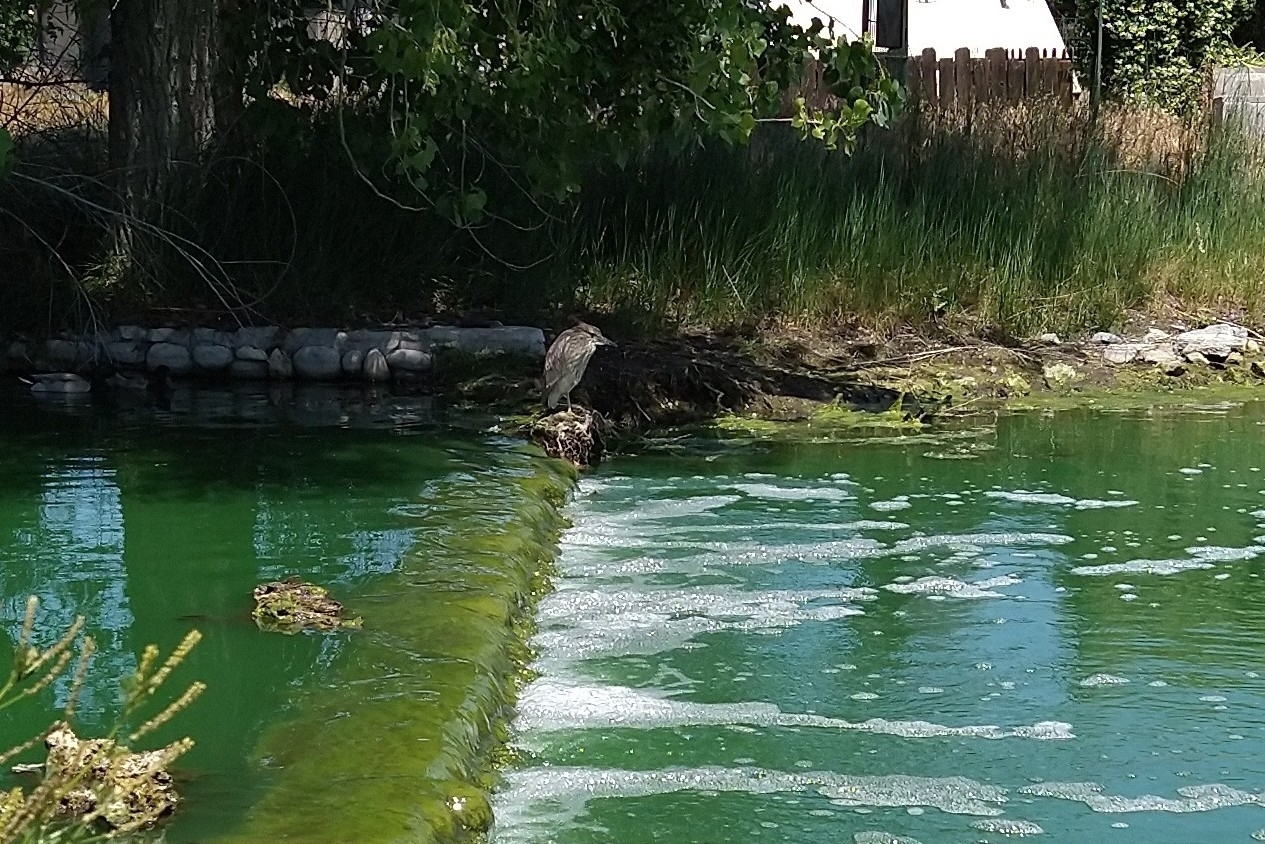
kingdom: Animalia
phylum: Chordata
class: Aves
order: Pelecaniformes
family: Ardeidae
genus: Nycticorax
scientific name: Nycticorax nycticorax
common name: Black-crowned night heron
